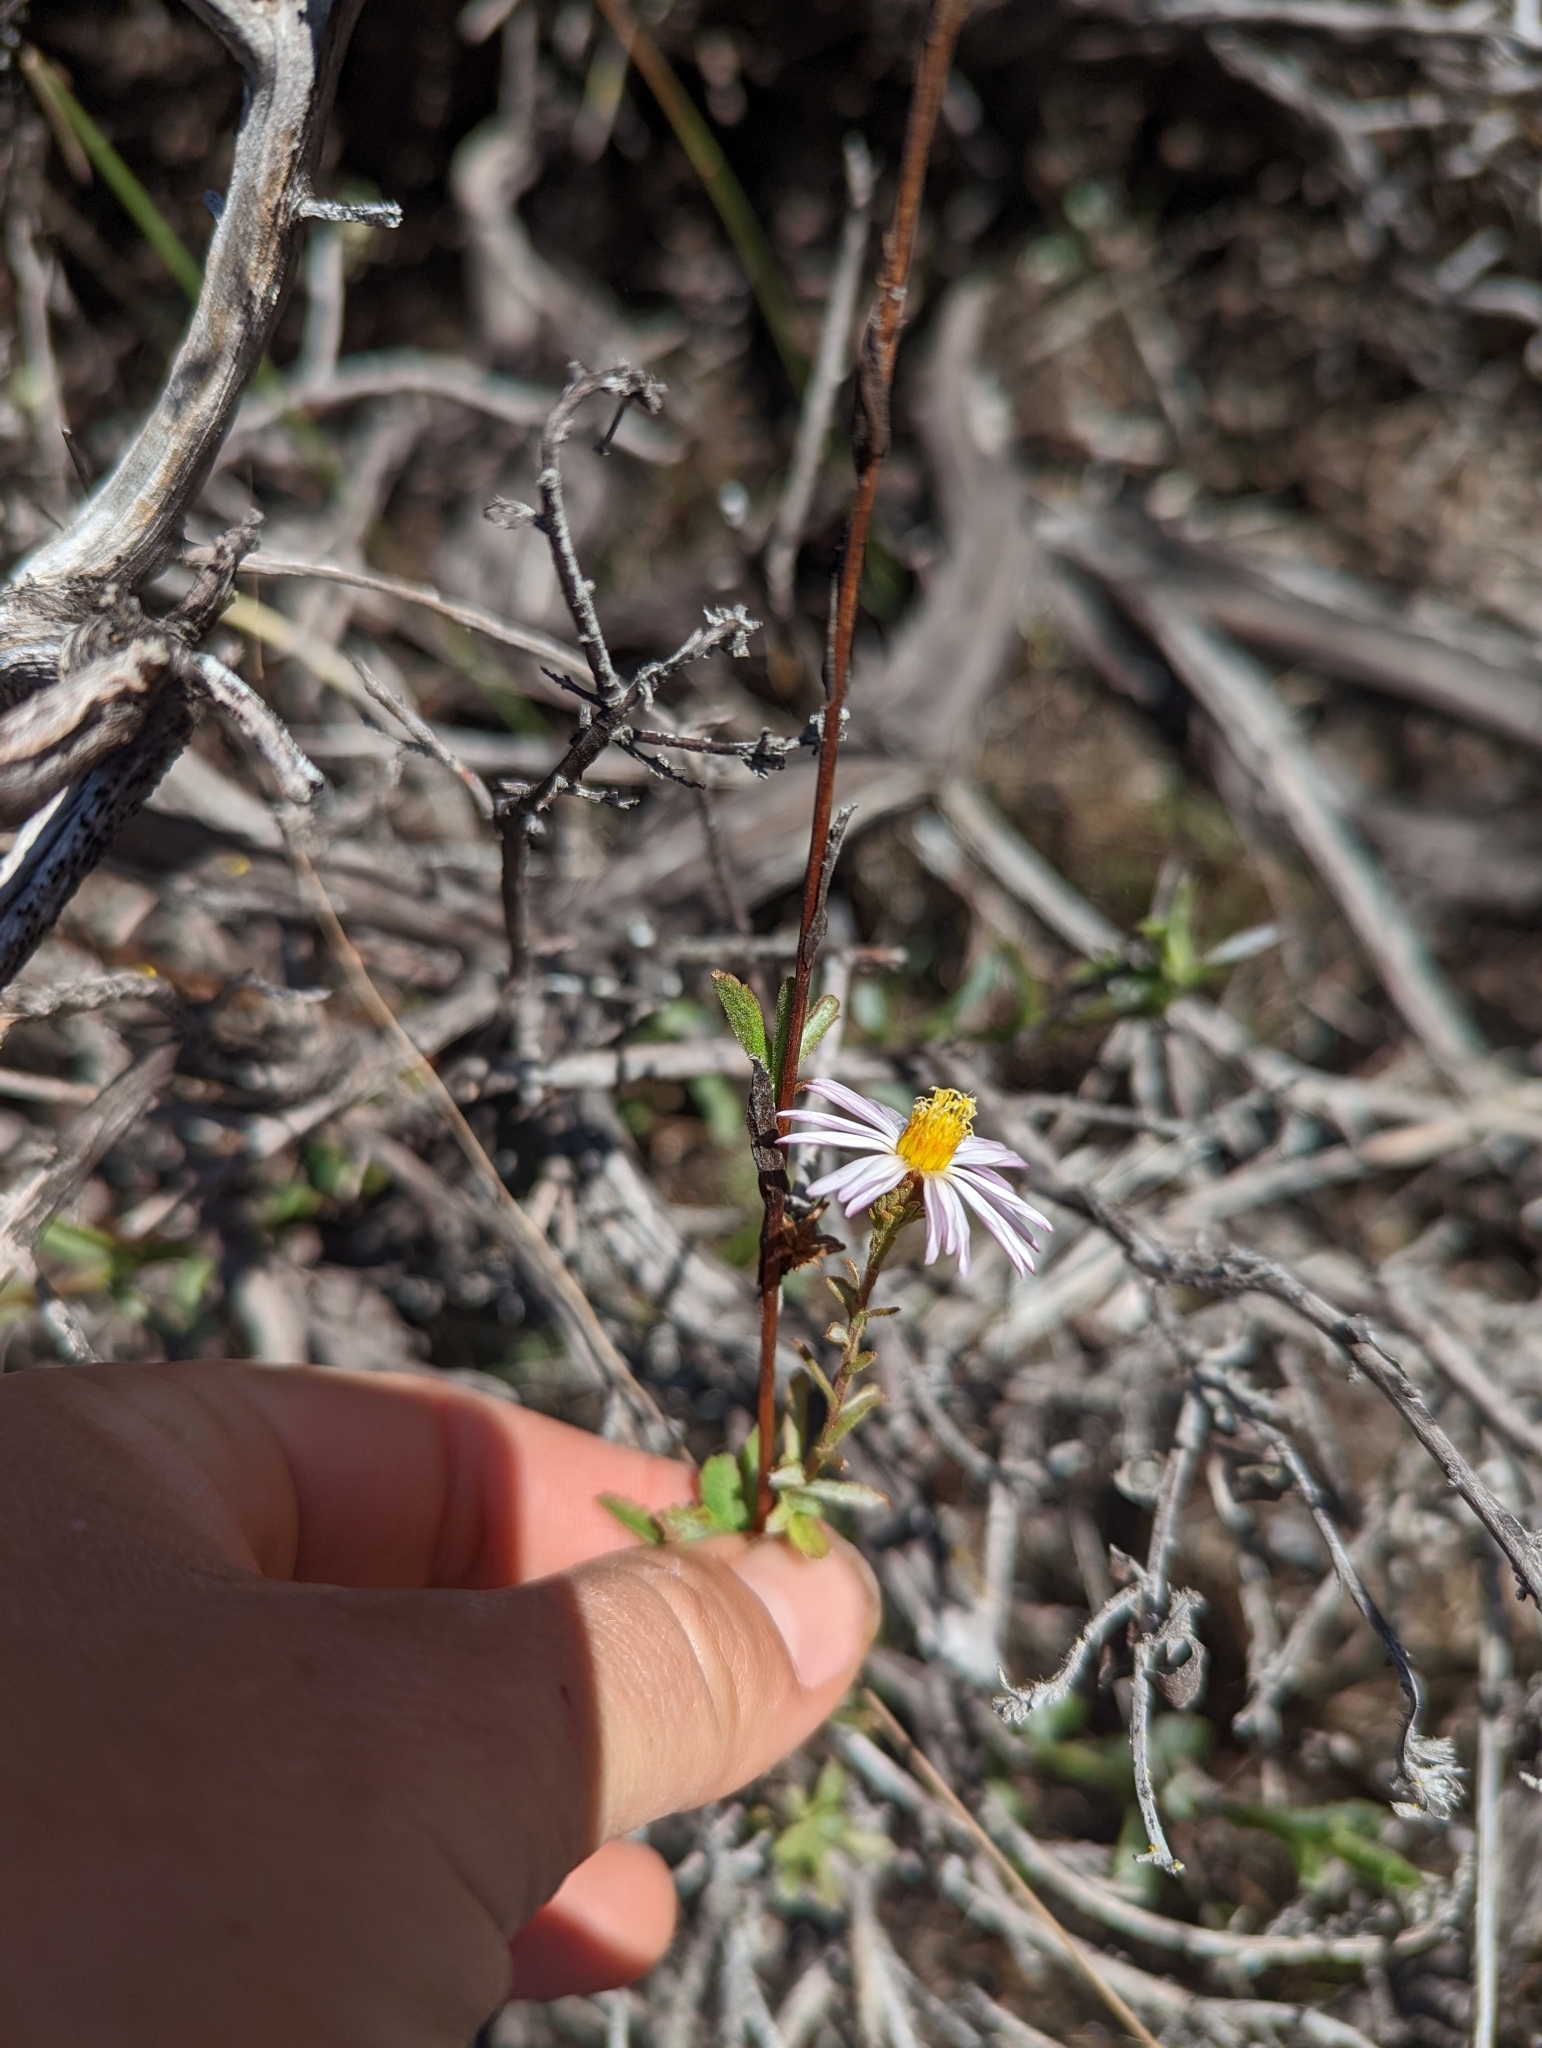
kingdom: Plantae
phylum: Tracheophyta
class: Magnoliopsida
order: Asterales
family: Asteraceae
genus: Corethrogyne
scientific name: Corethrogyne filaginifolia
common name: Sand-aster
